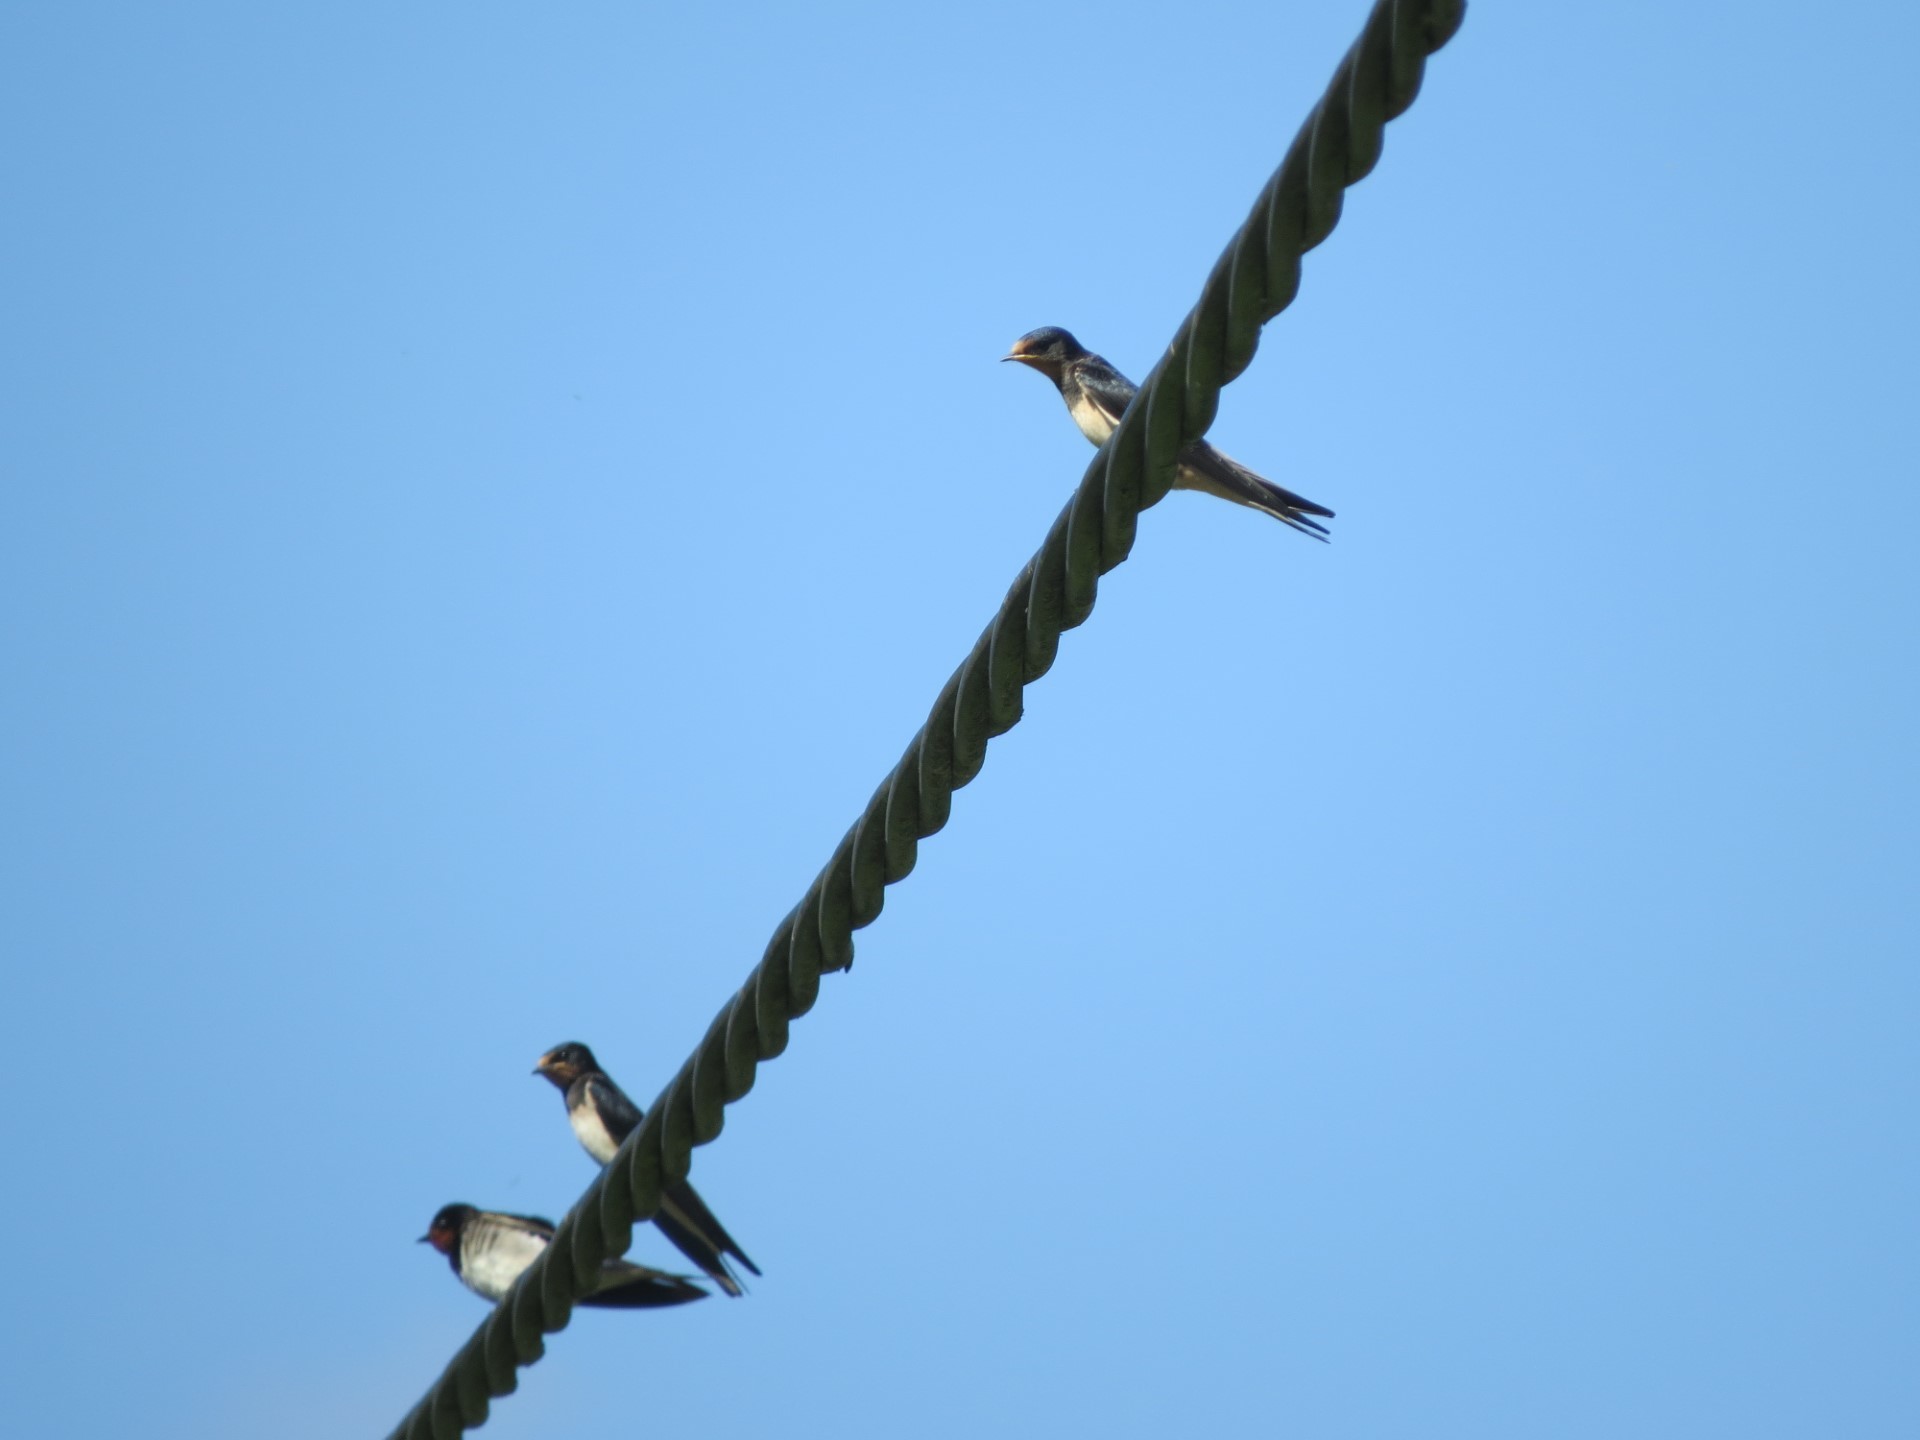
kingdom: Animalia
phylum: Chordata
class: Aves
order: Passeriformes
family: Hirundinidae
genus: Hirundo
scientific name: Hirundo rustica
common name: Barn swallow
